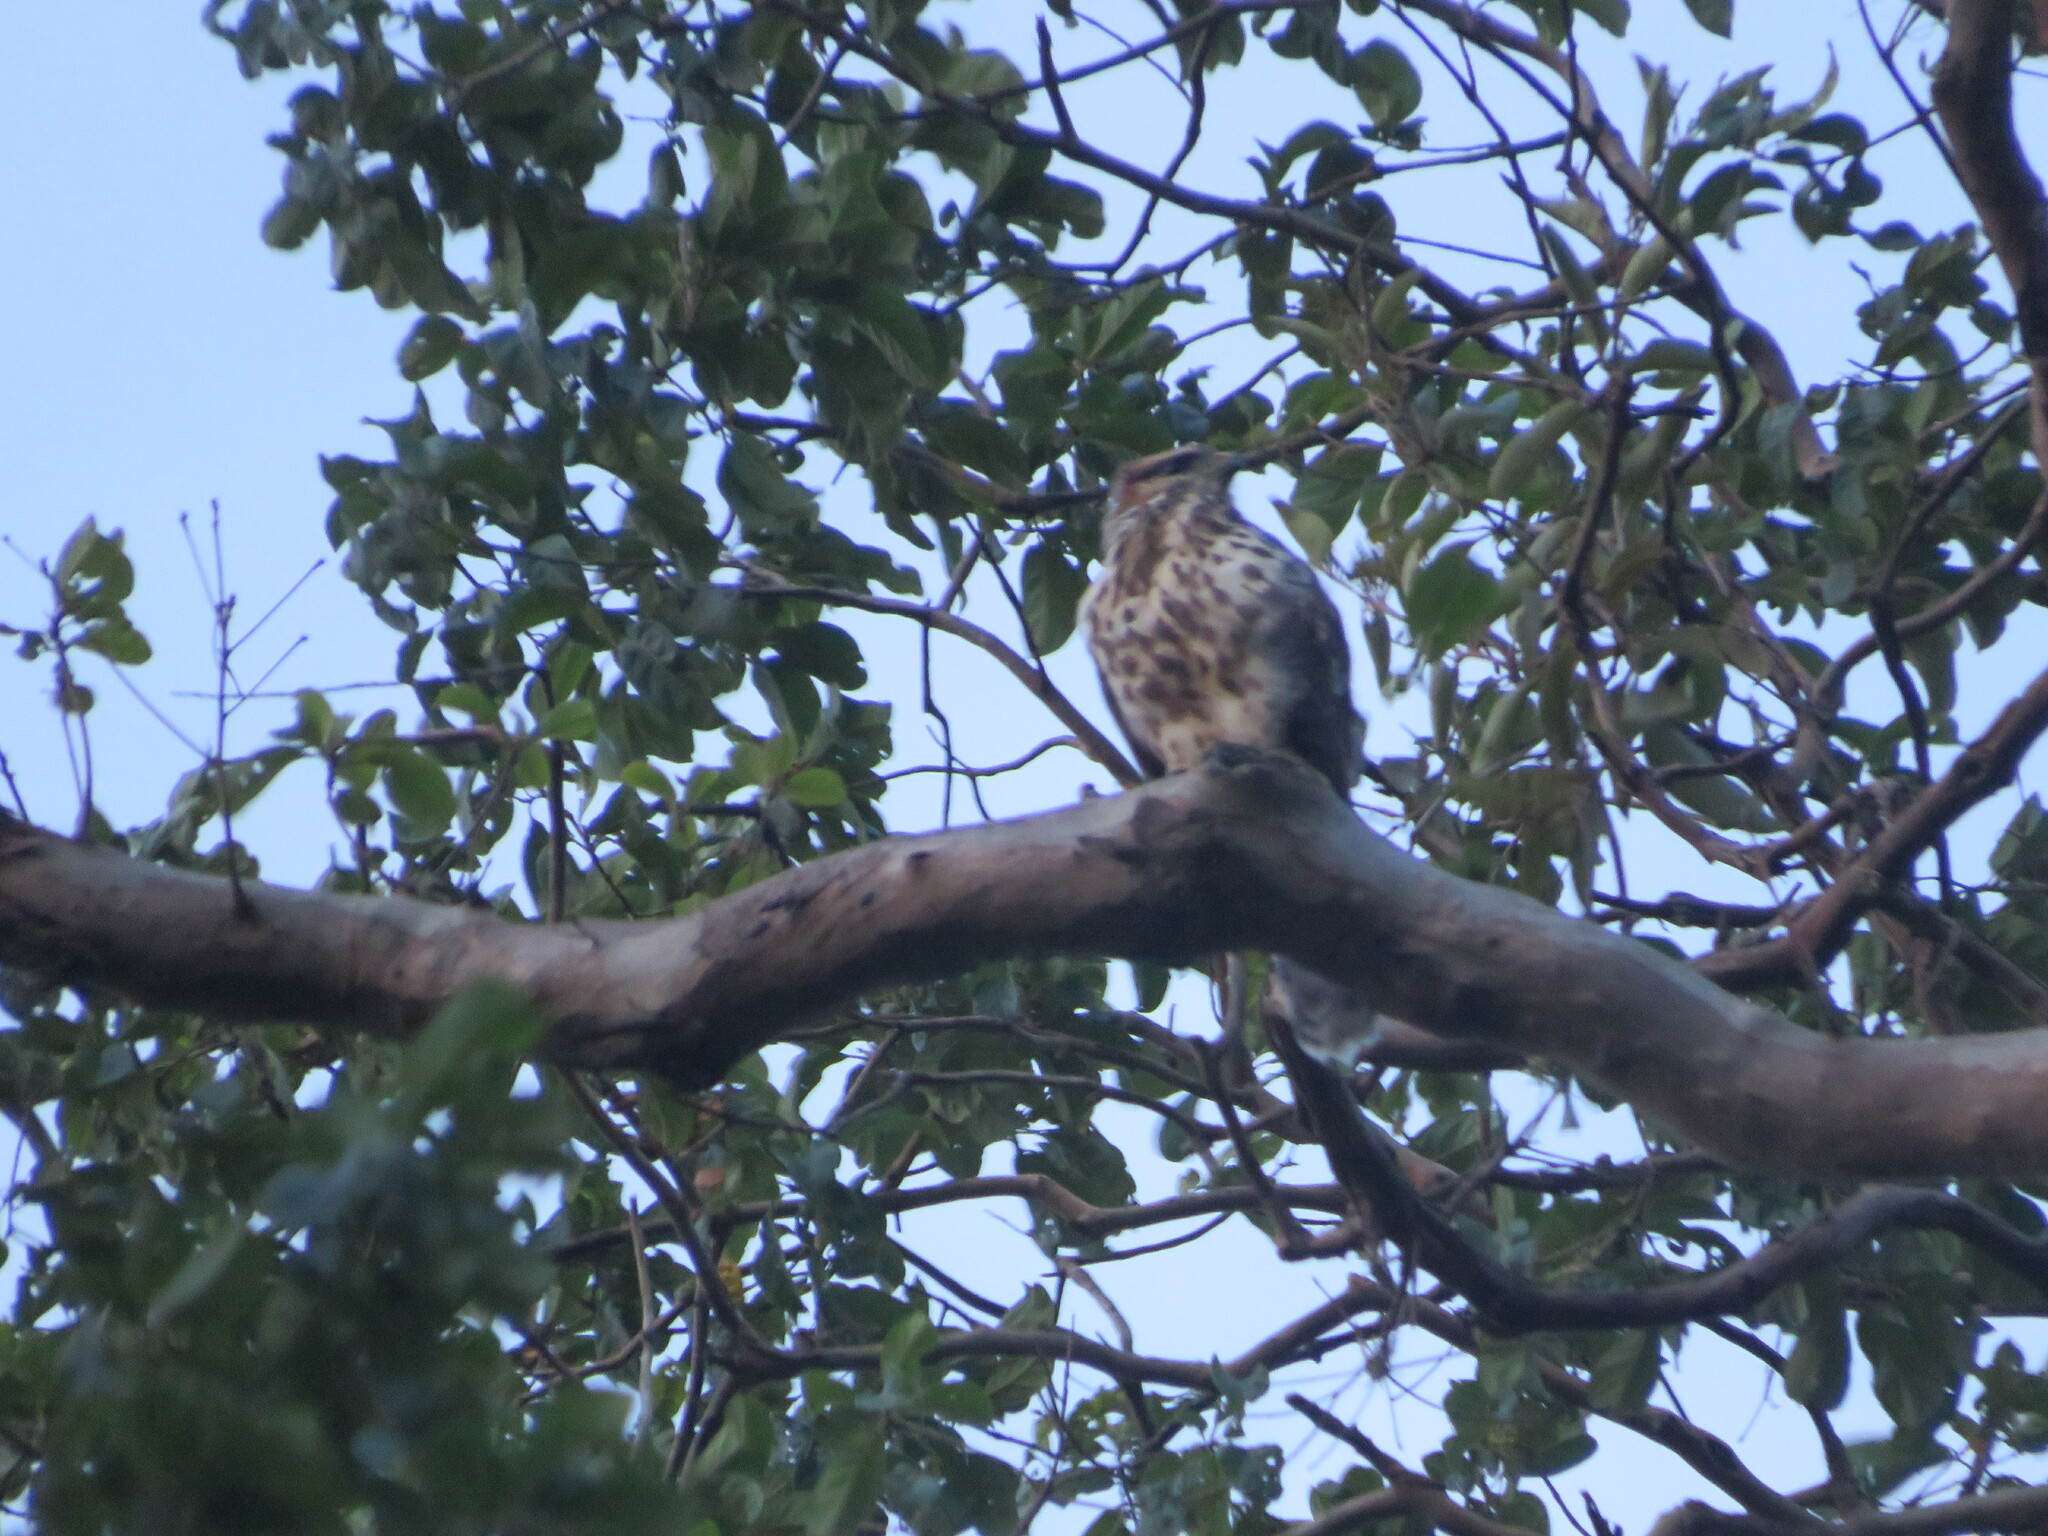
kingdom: Animalia
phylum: Chordata
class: Aves
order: Accipitriformes
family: Accipitridae
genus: Buteo
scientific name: Buteo nitidus
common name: Grey-lined hawk
